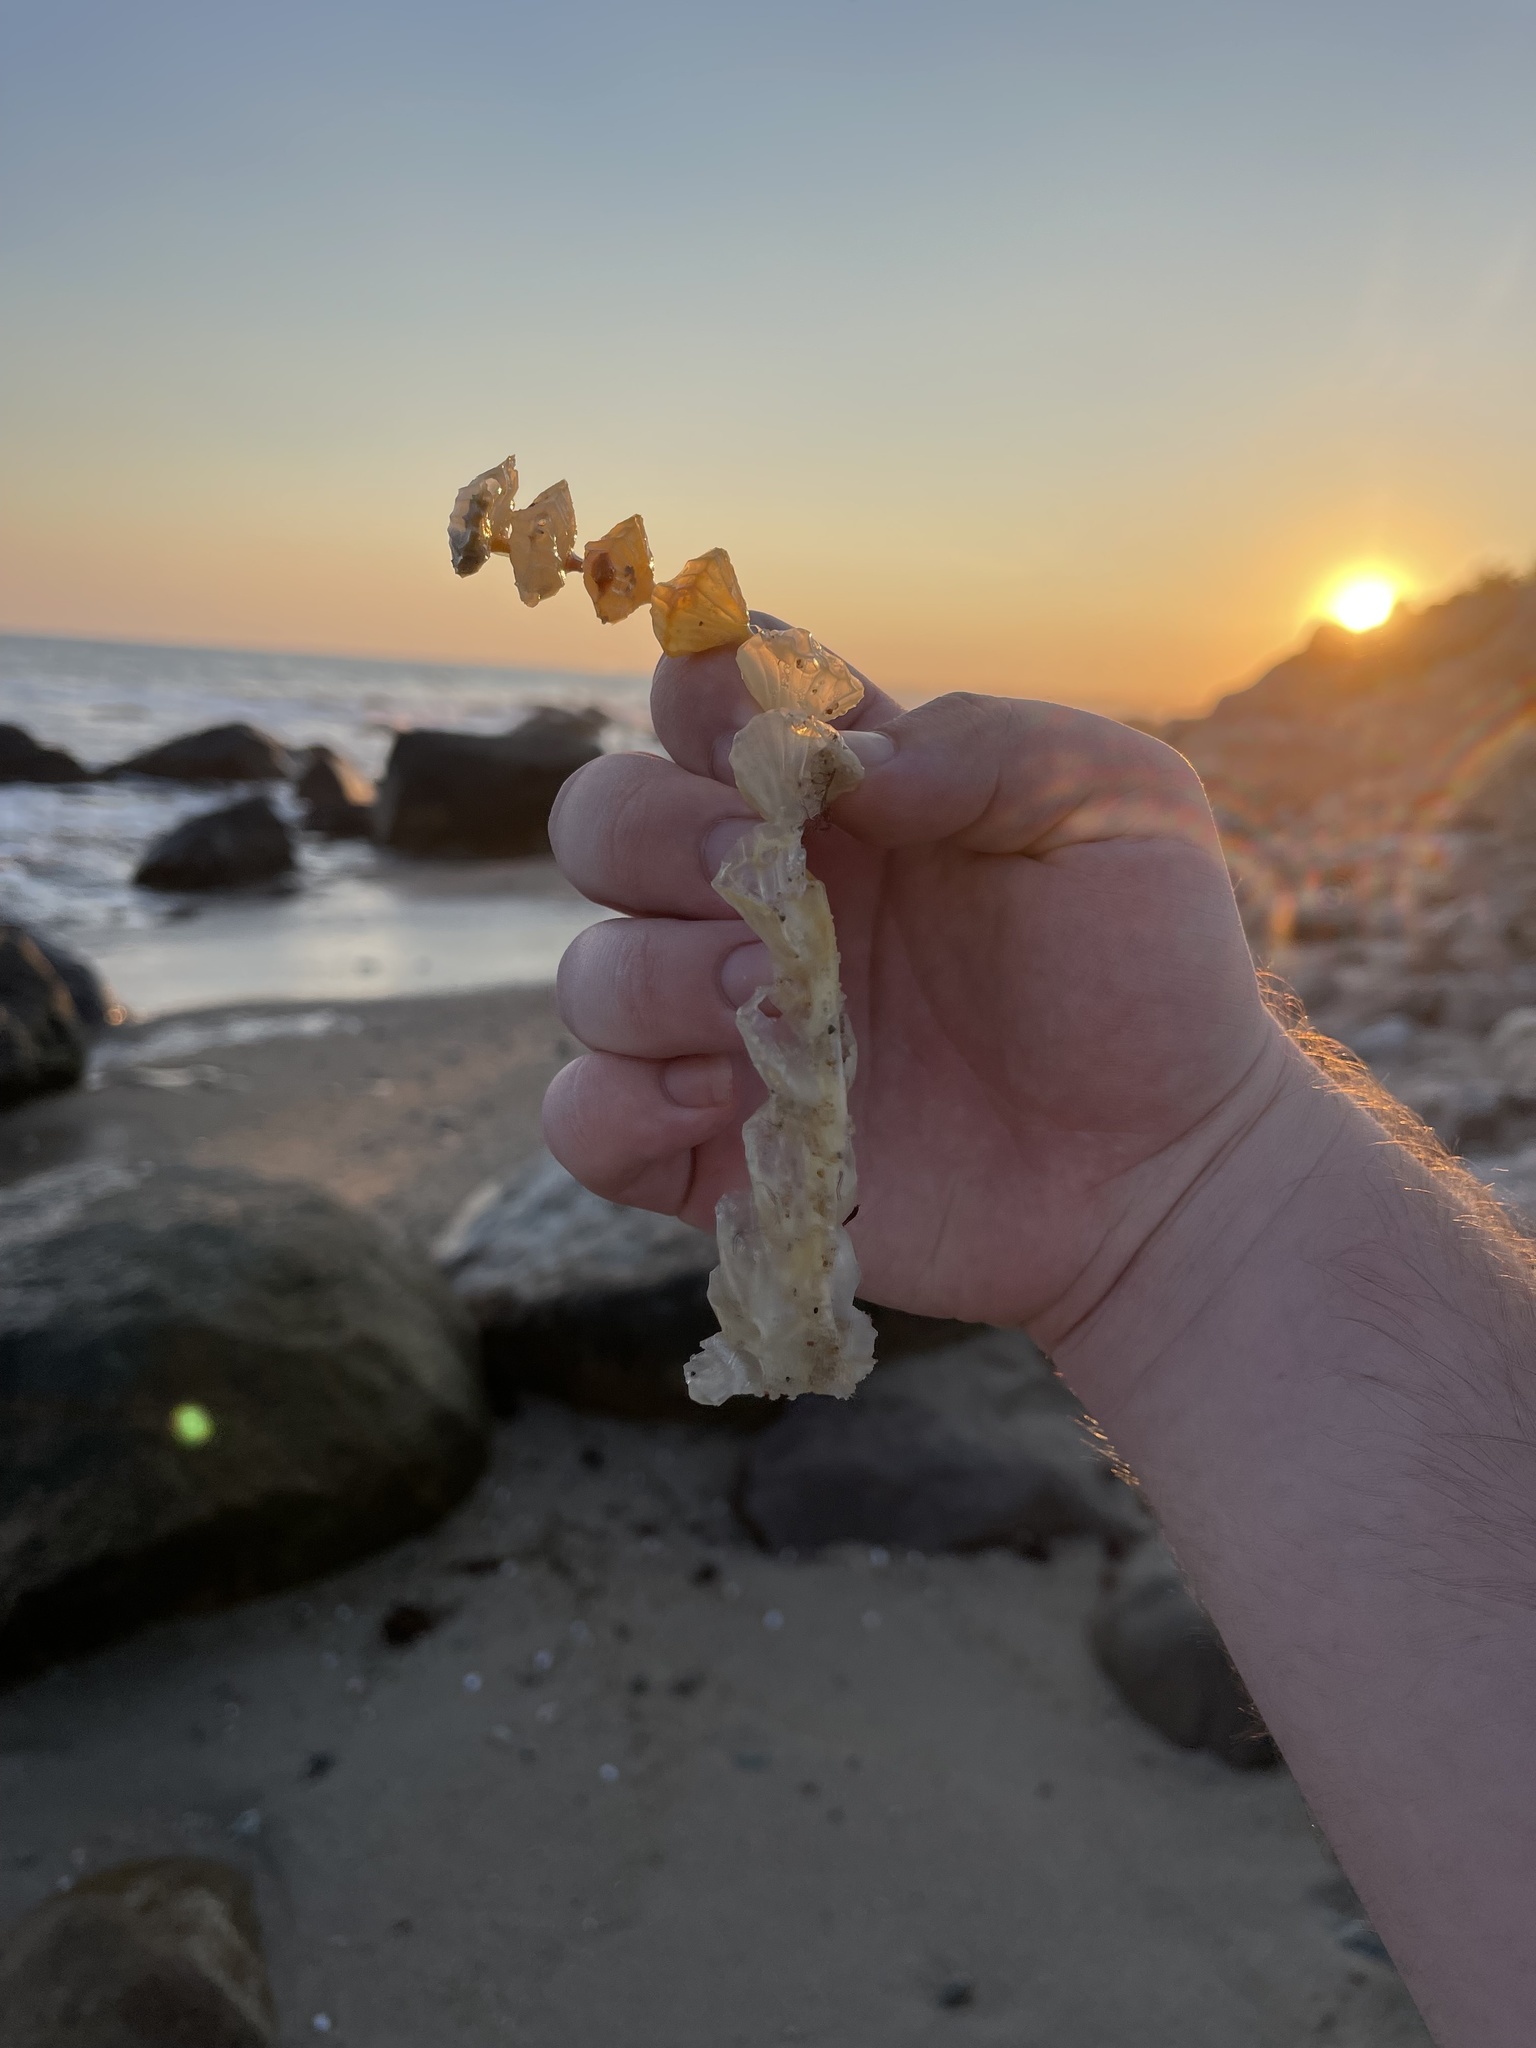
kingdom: Animalia
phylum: Mollusca
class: Gastropoda
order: Neogastropoda
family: Busyconidae
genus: Busycotypus
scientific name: Busycotypus canaliculatus
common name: Channeled whelk
